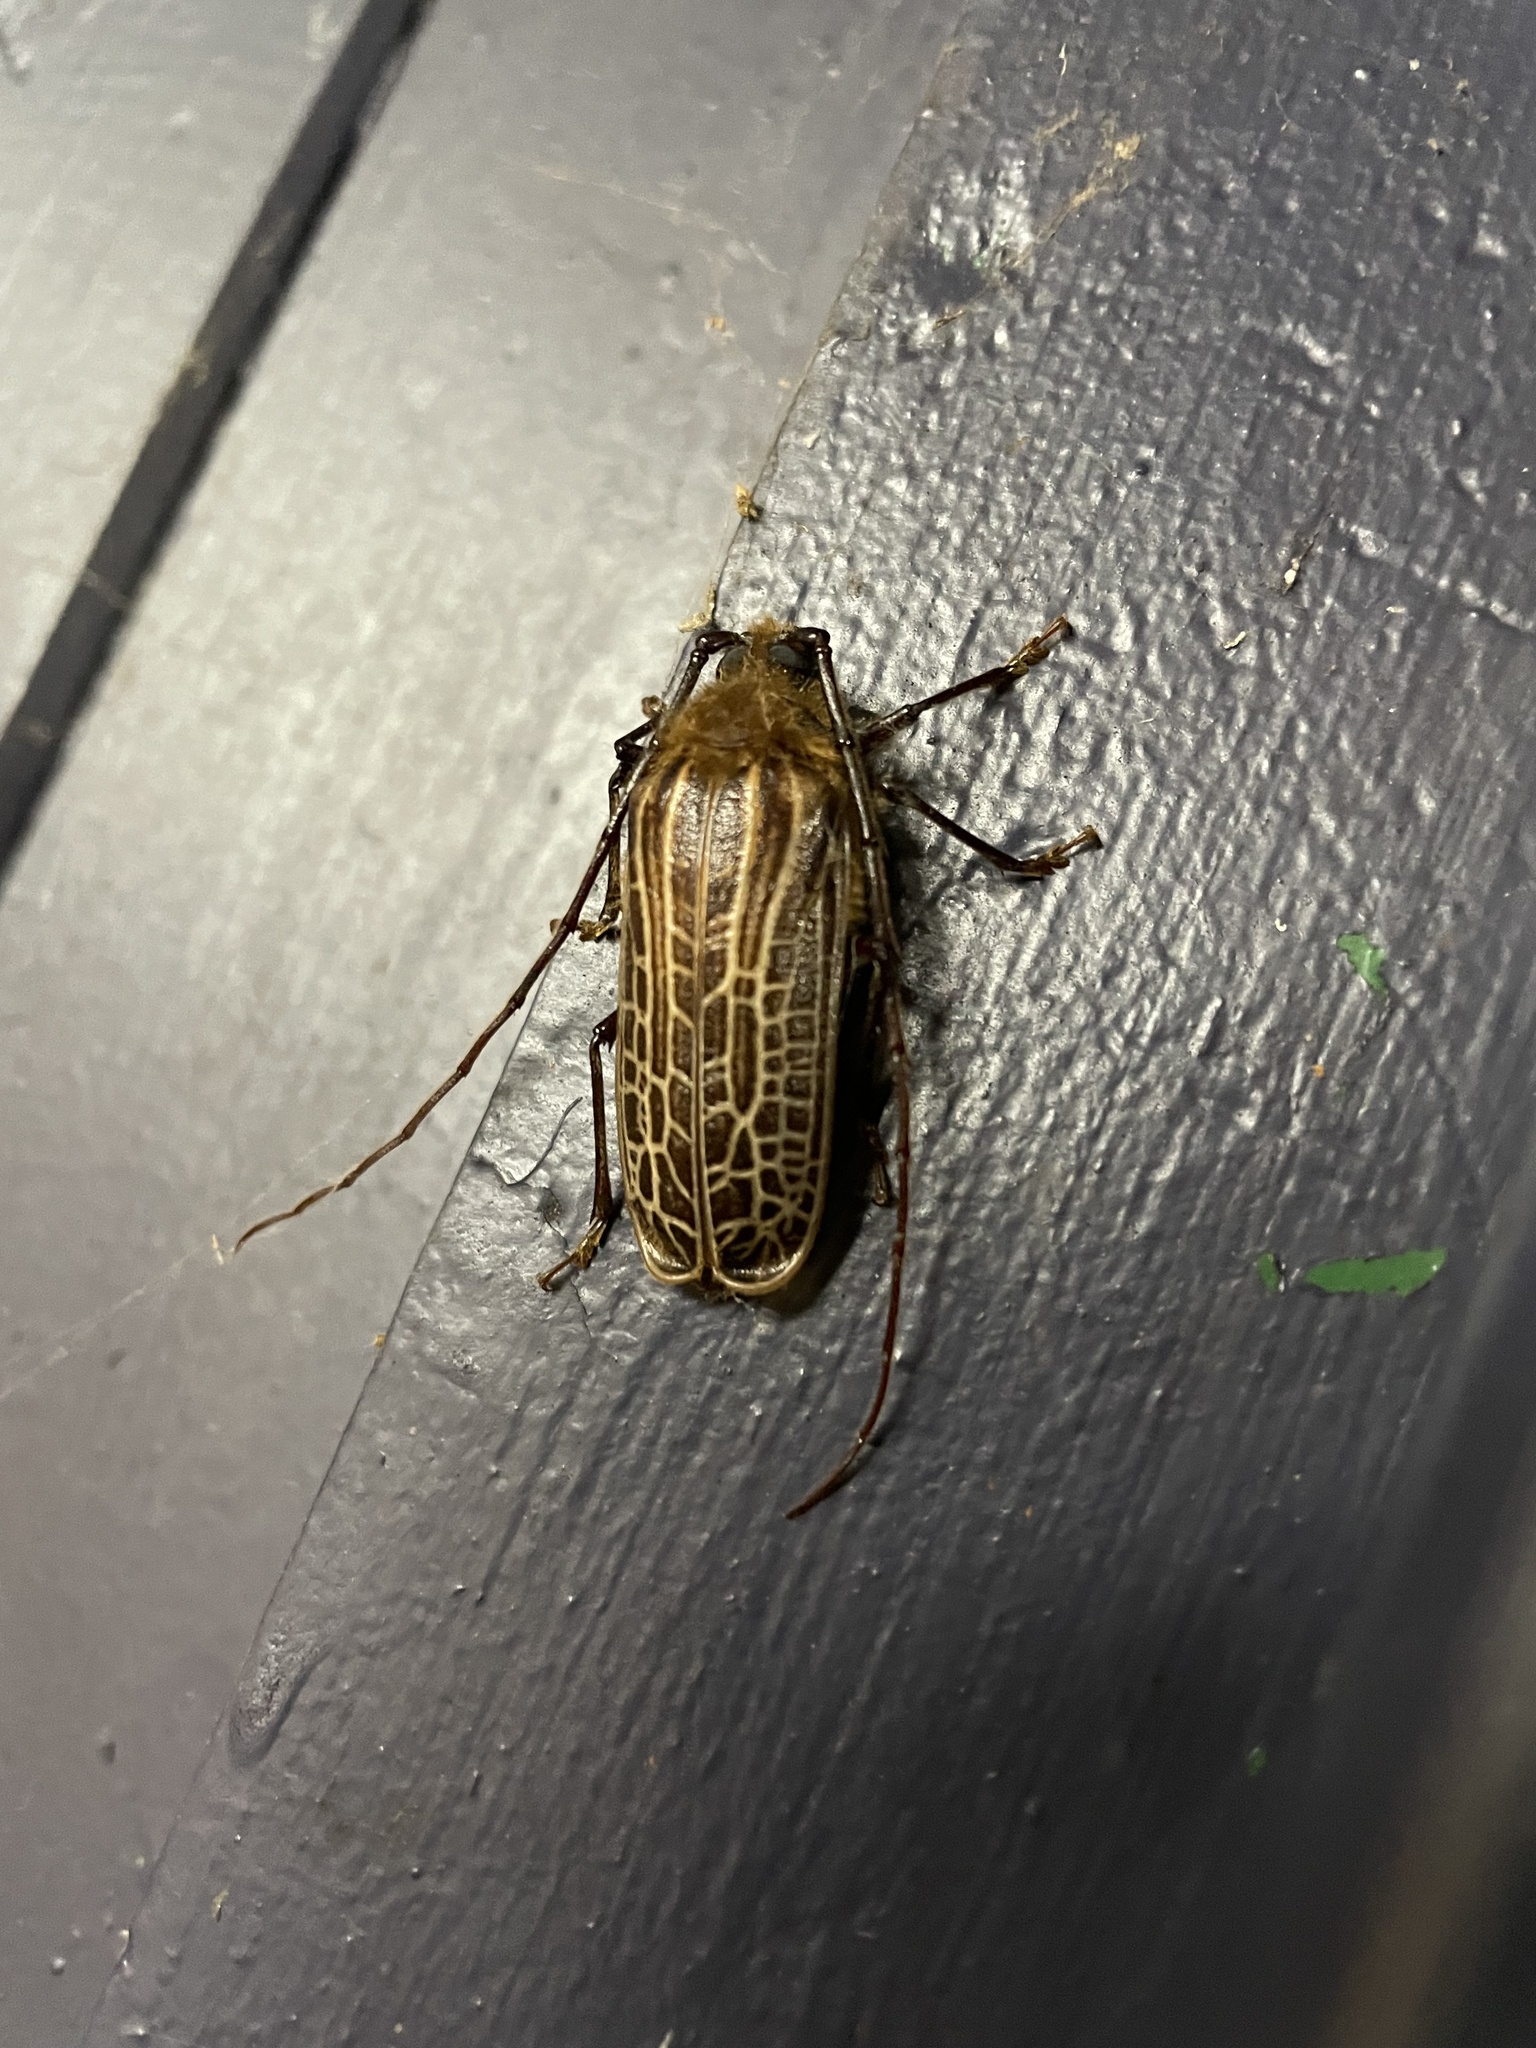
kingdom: Animalia
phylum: Arthropoda
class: Insecta
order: Coleoptera
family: Cerambycidae
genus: Prionoplus
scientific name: Prionoplus reticularis
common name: Huhu beetle
